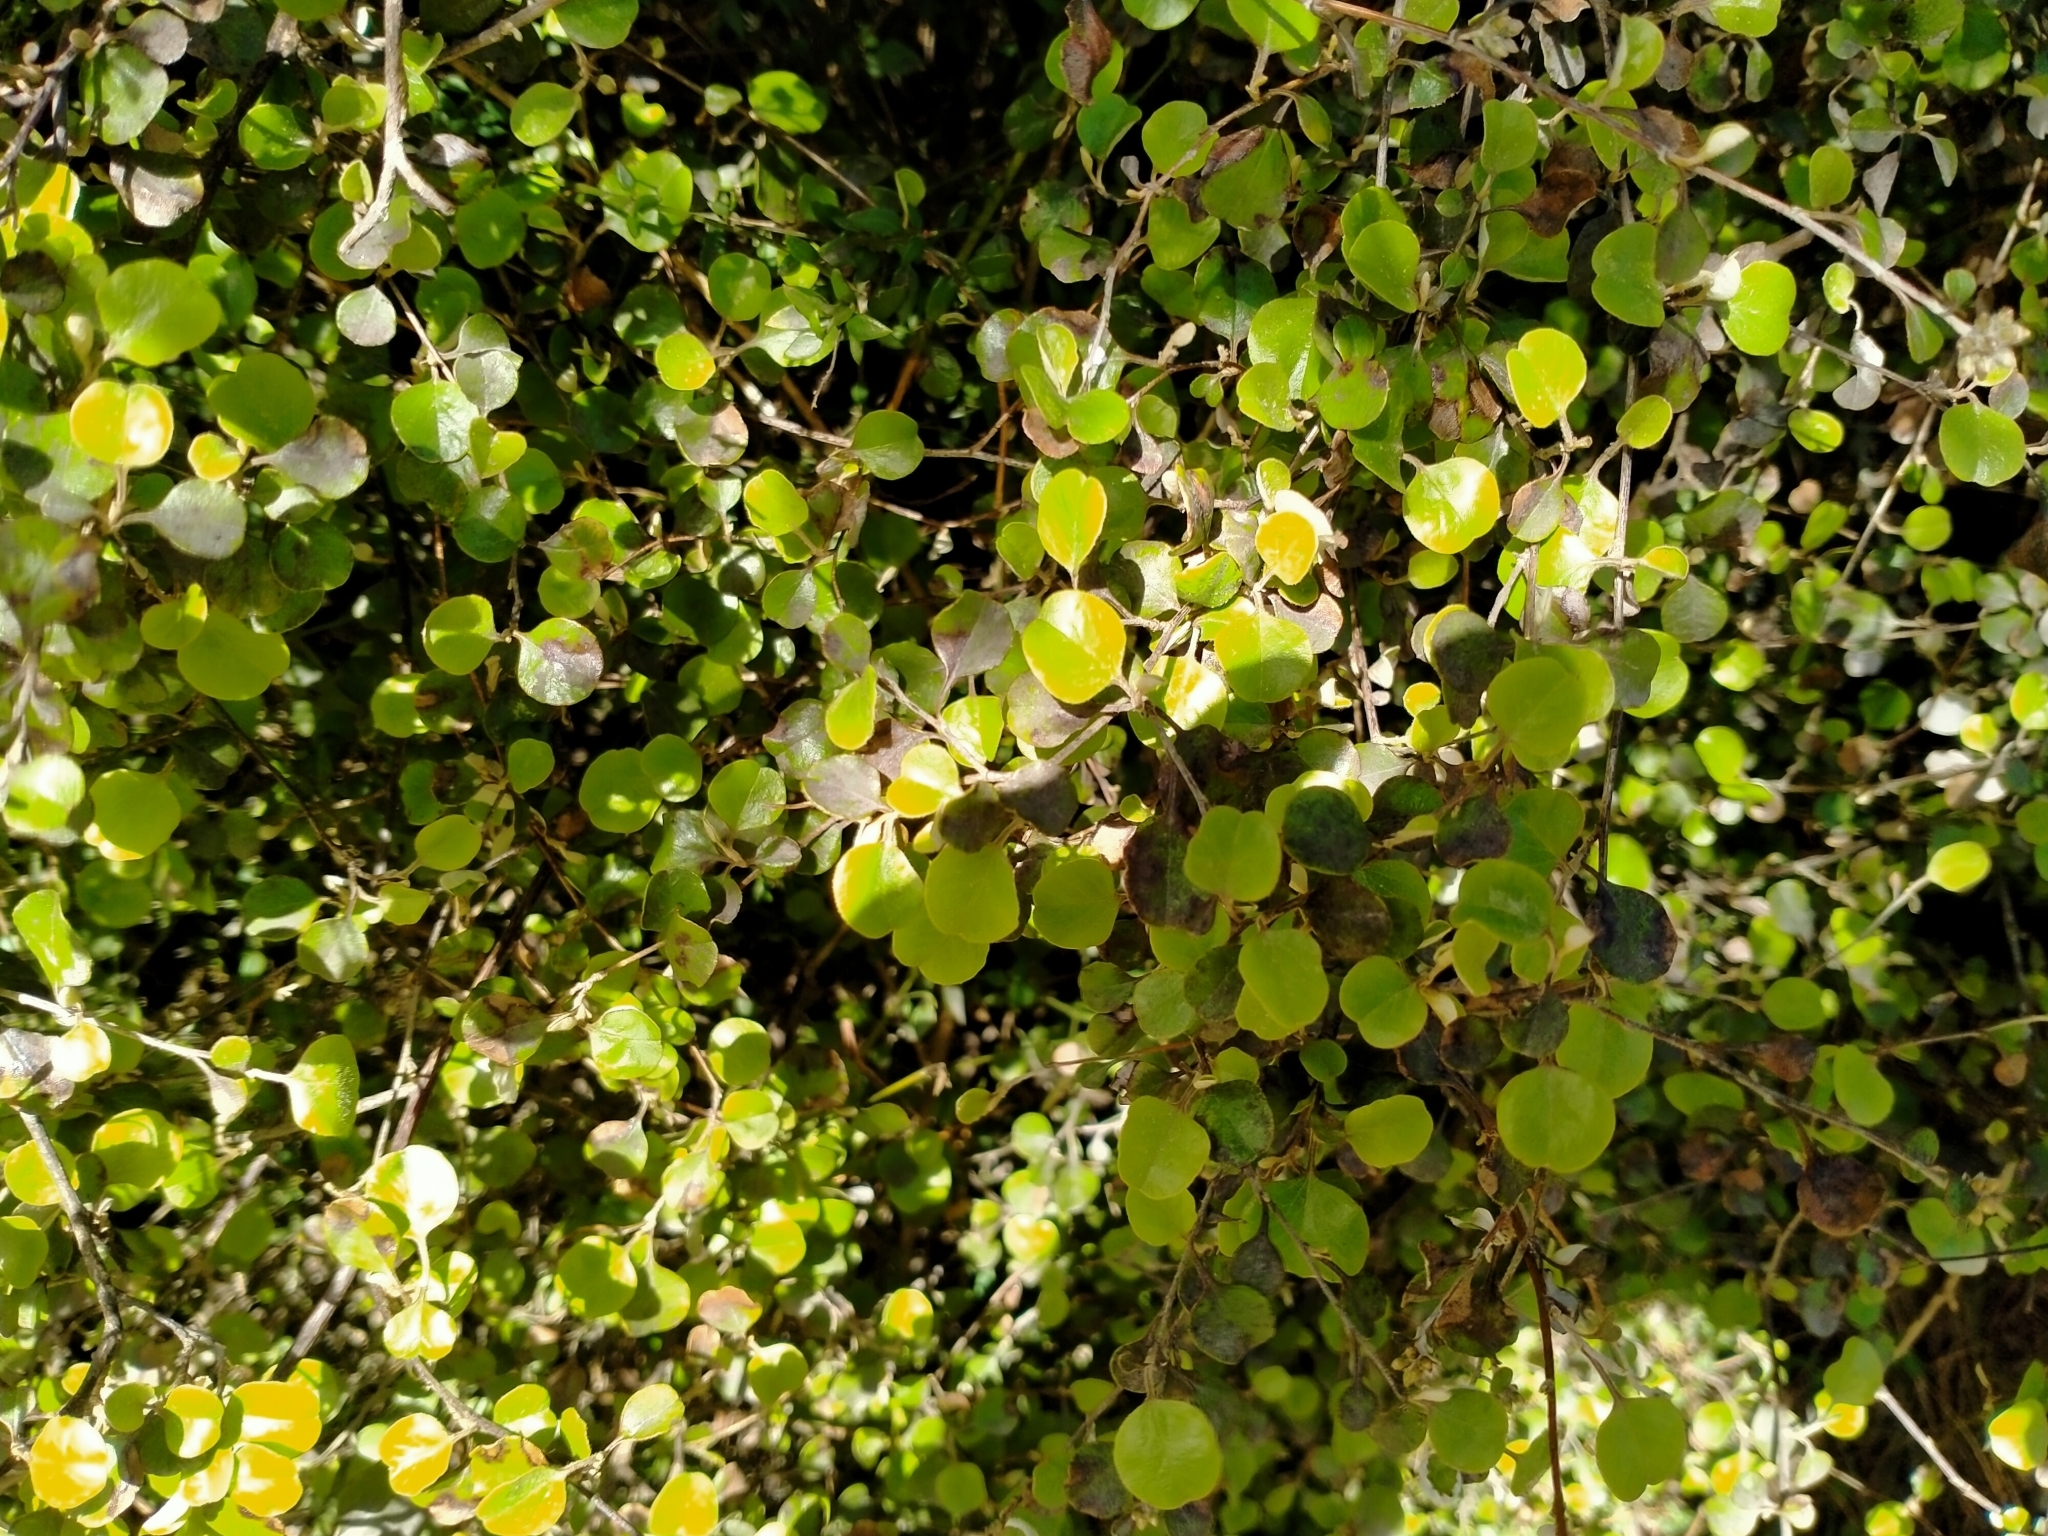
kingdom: Plantae
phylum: Tracheophyta
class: Magnoliopsida
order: Asterales
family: Asteraceae
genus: Ozothamnus
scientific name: Ozothamnus glomeratus
